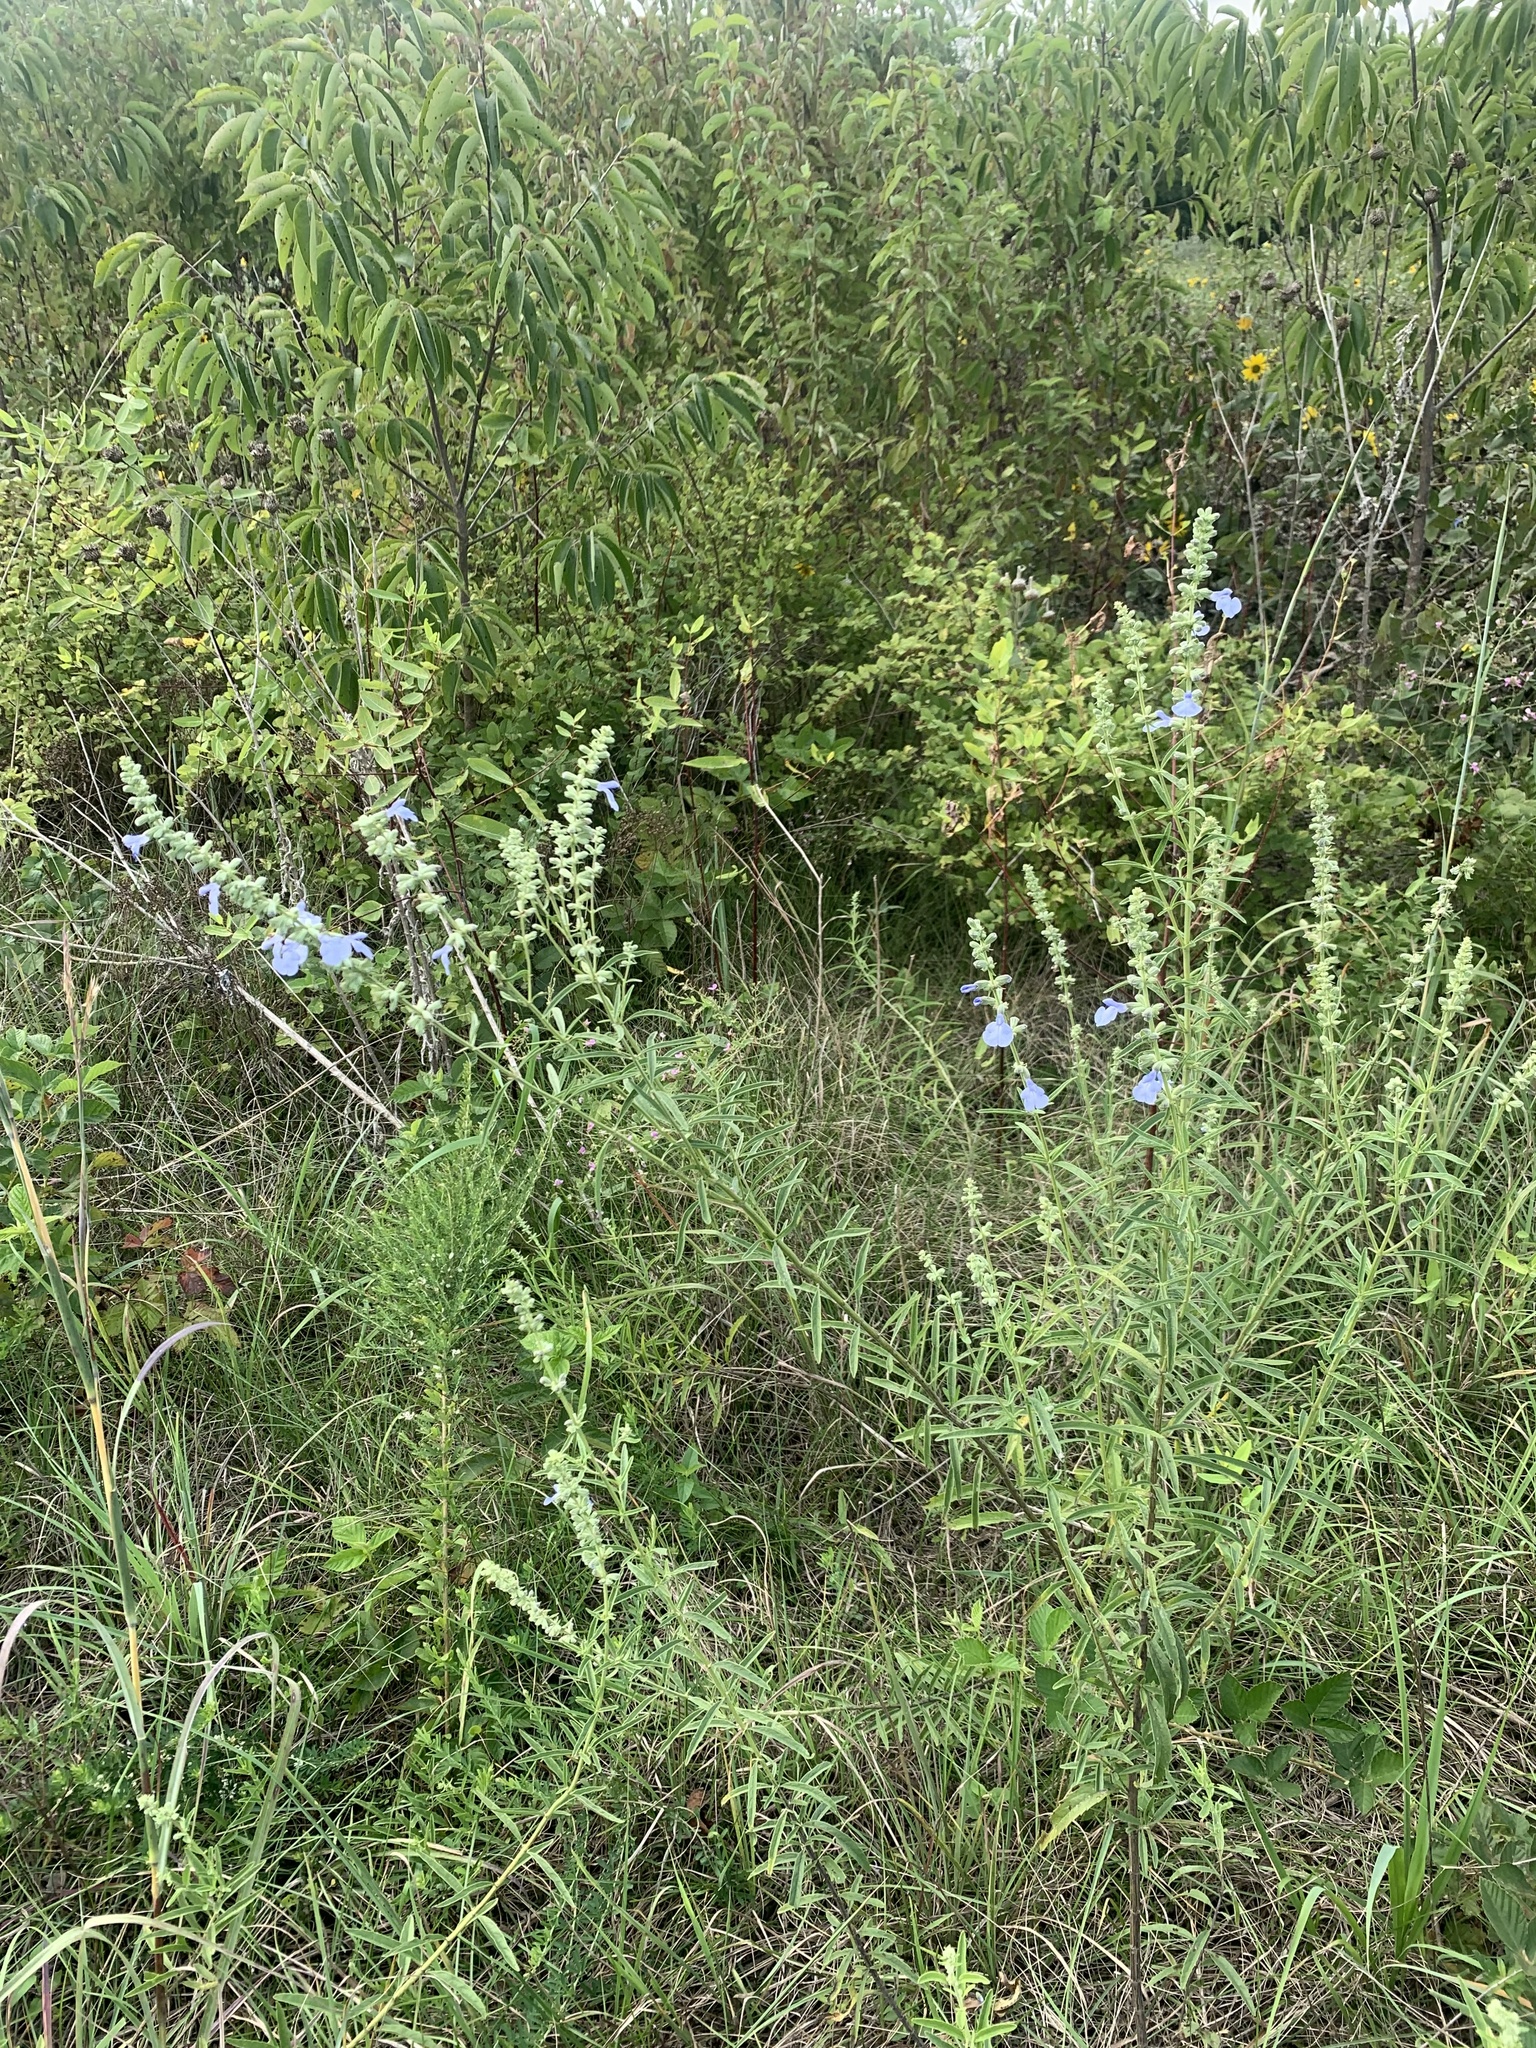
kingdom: Plantae
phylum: Tracheophyta
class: Magnoliopsida
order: Lamiales
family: Lamiaceae
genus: Salvia
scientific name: Salvia azurea
